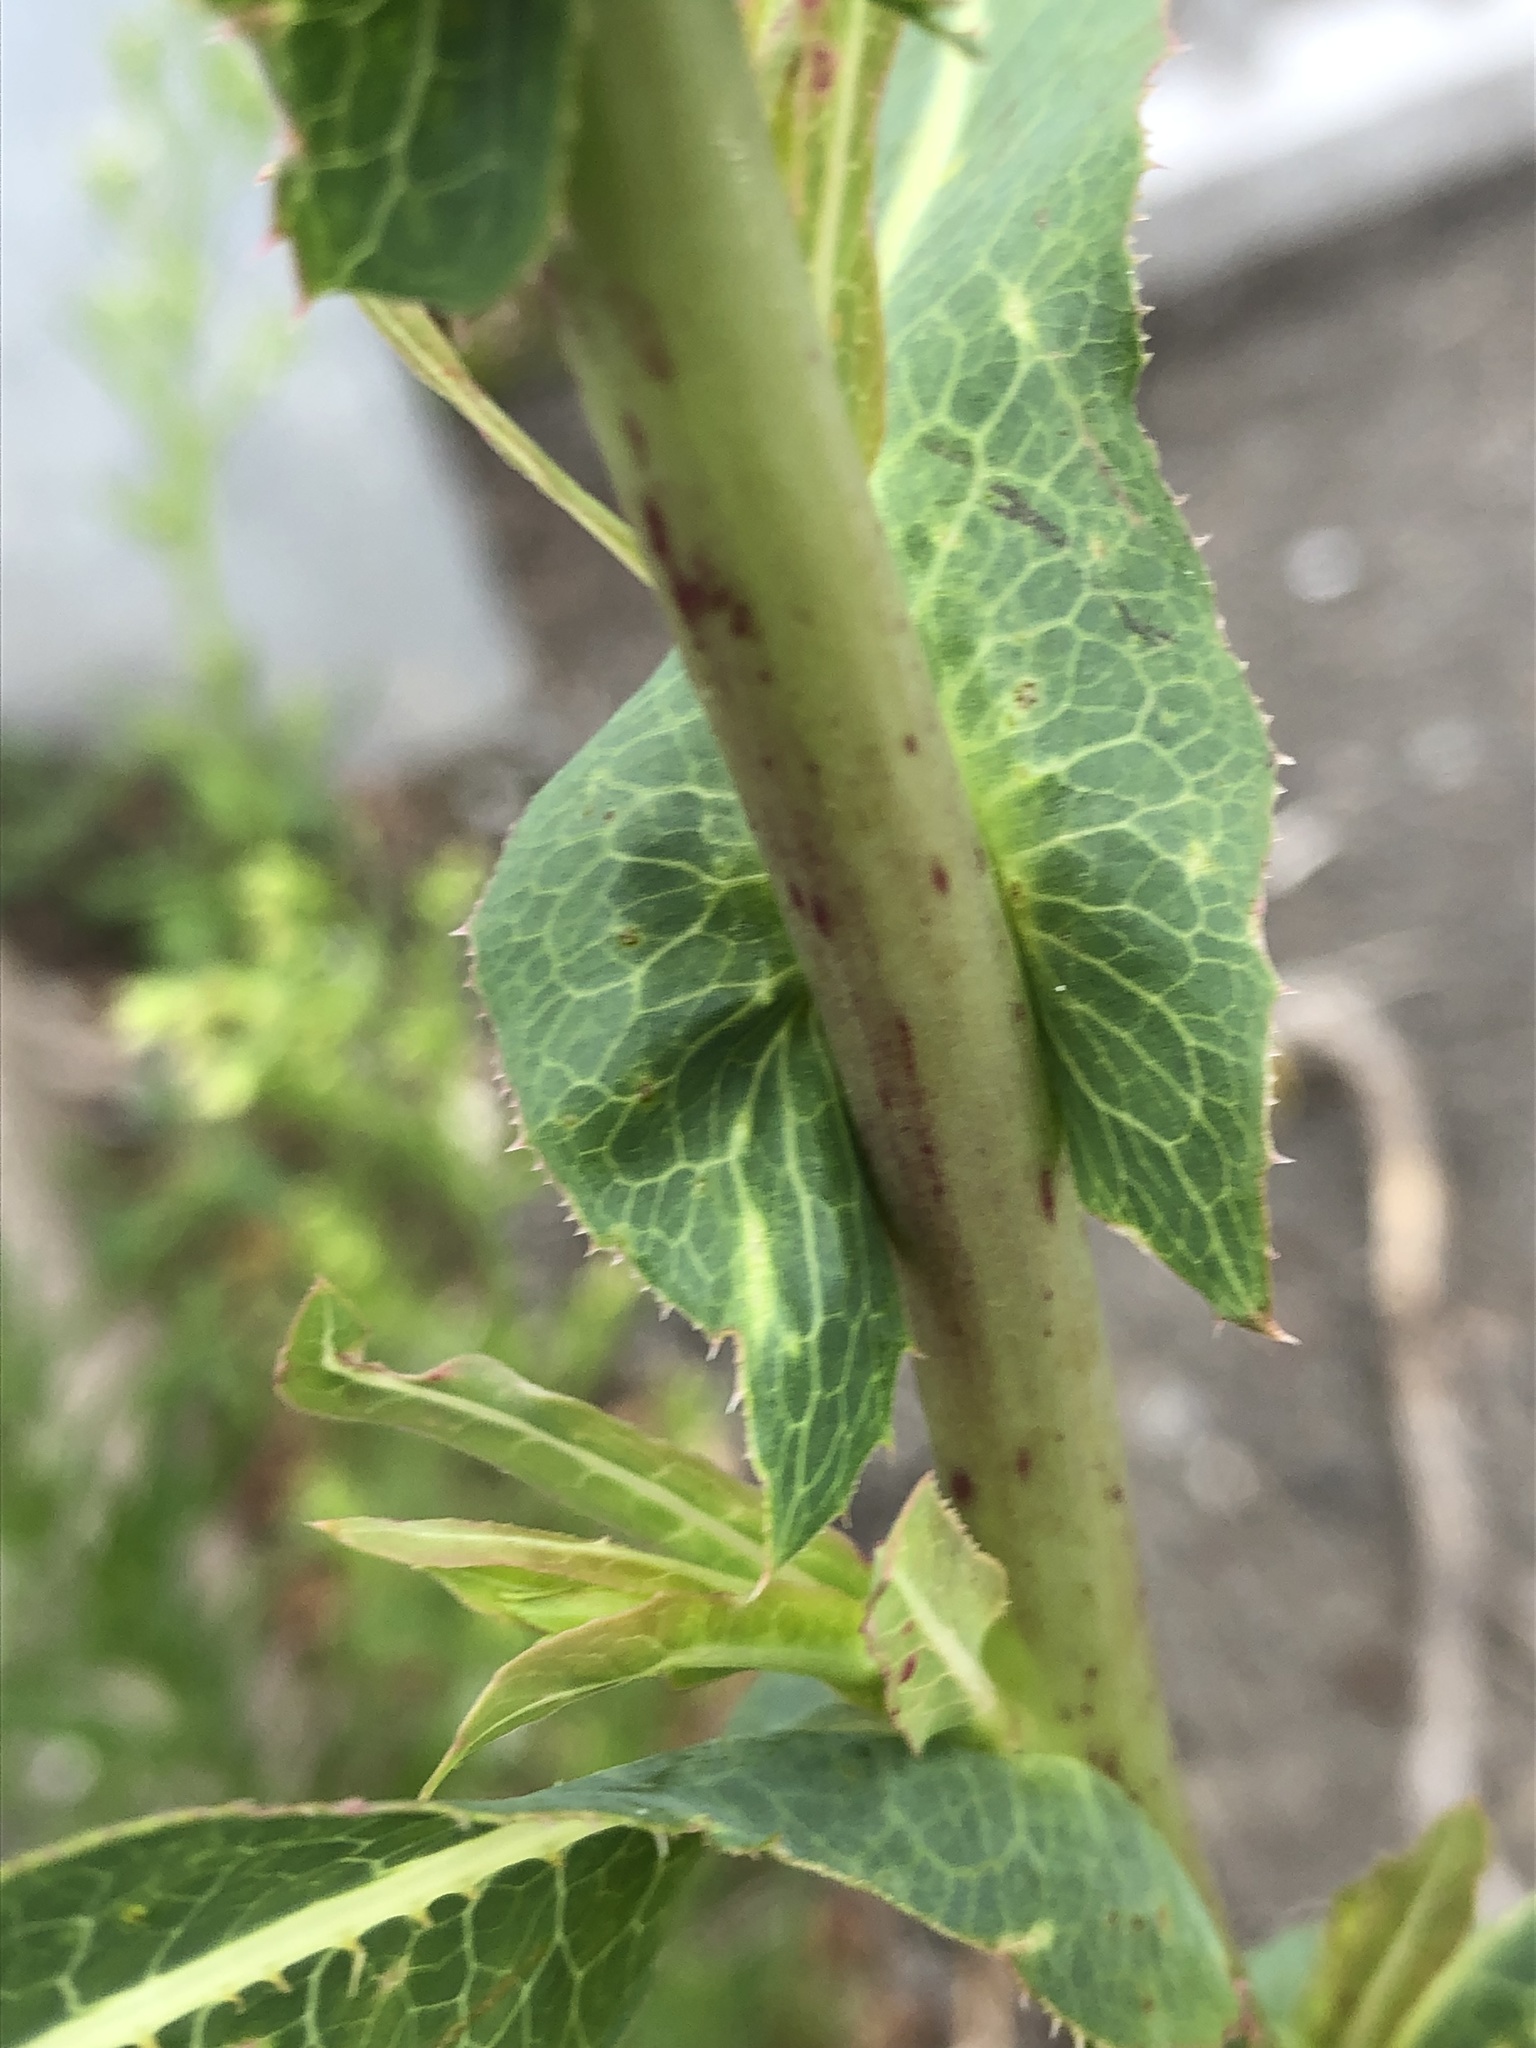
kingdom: Plantae
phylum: Tracheophyta
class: Magnoliopsida
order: Asterales
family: Asteraceae
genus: Lactuca
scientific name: Lactuca serriola
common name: Prickly lettuce
